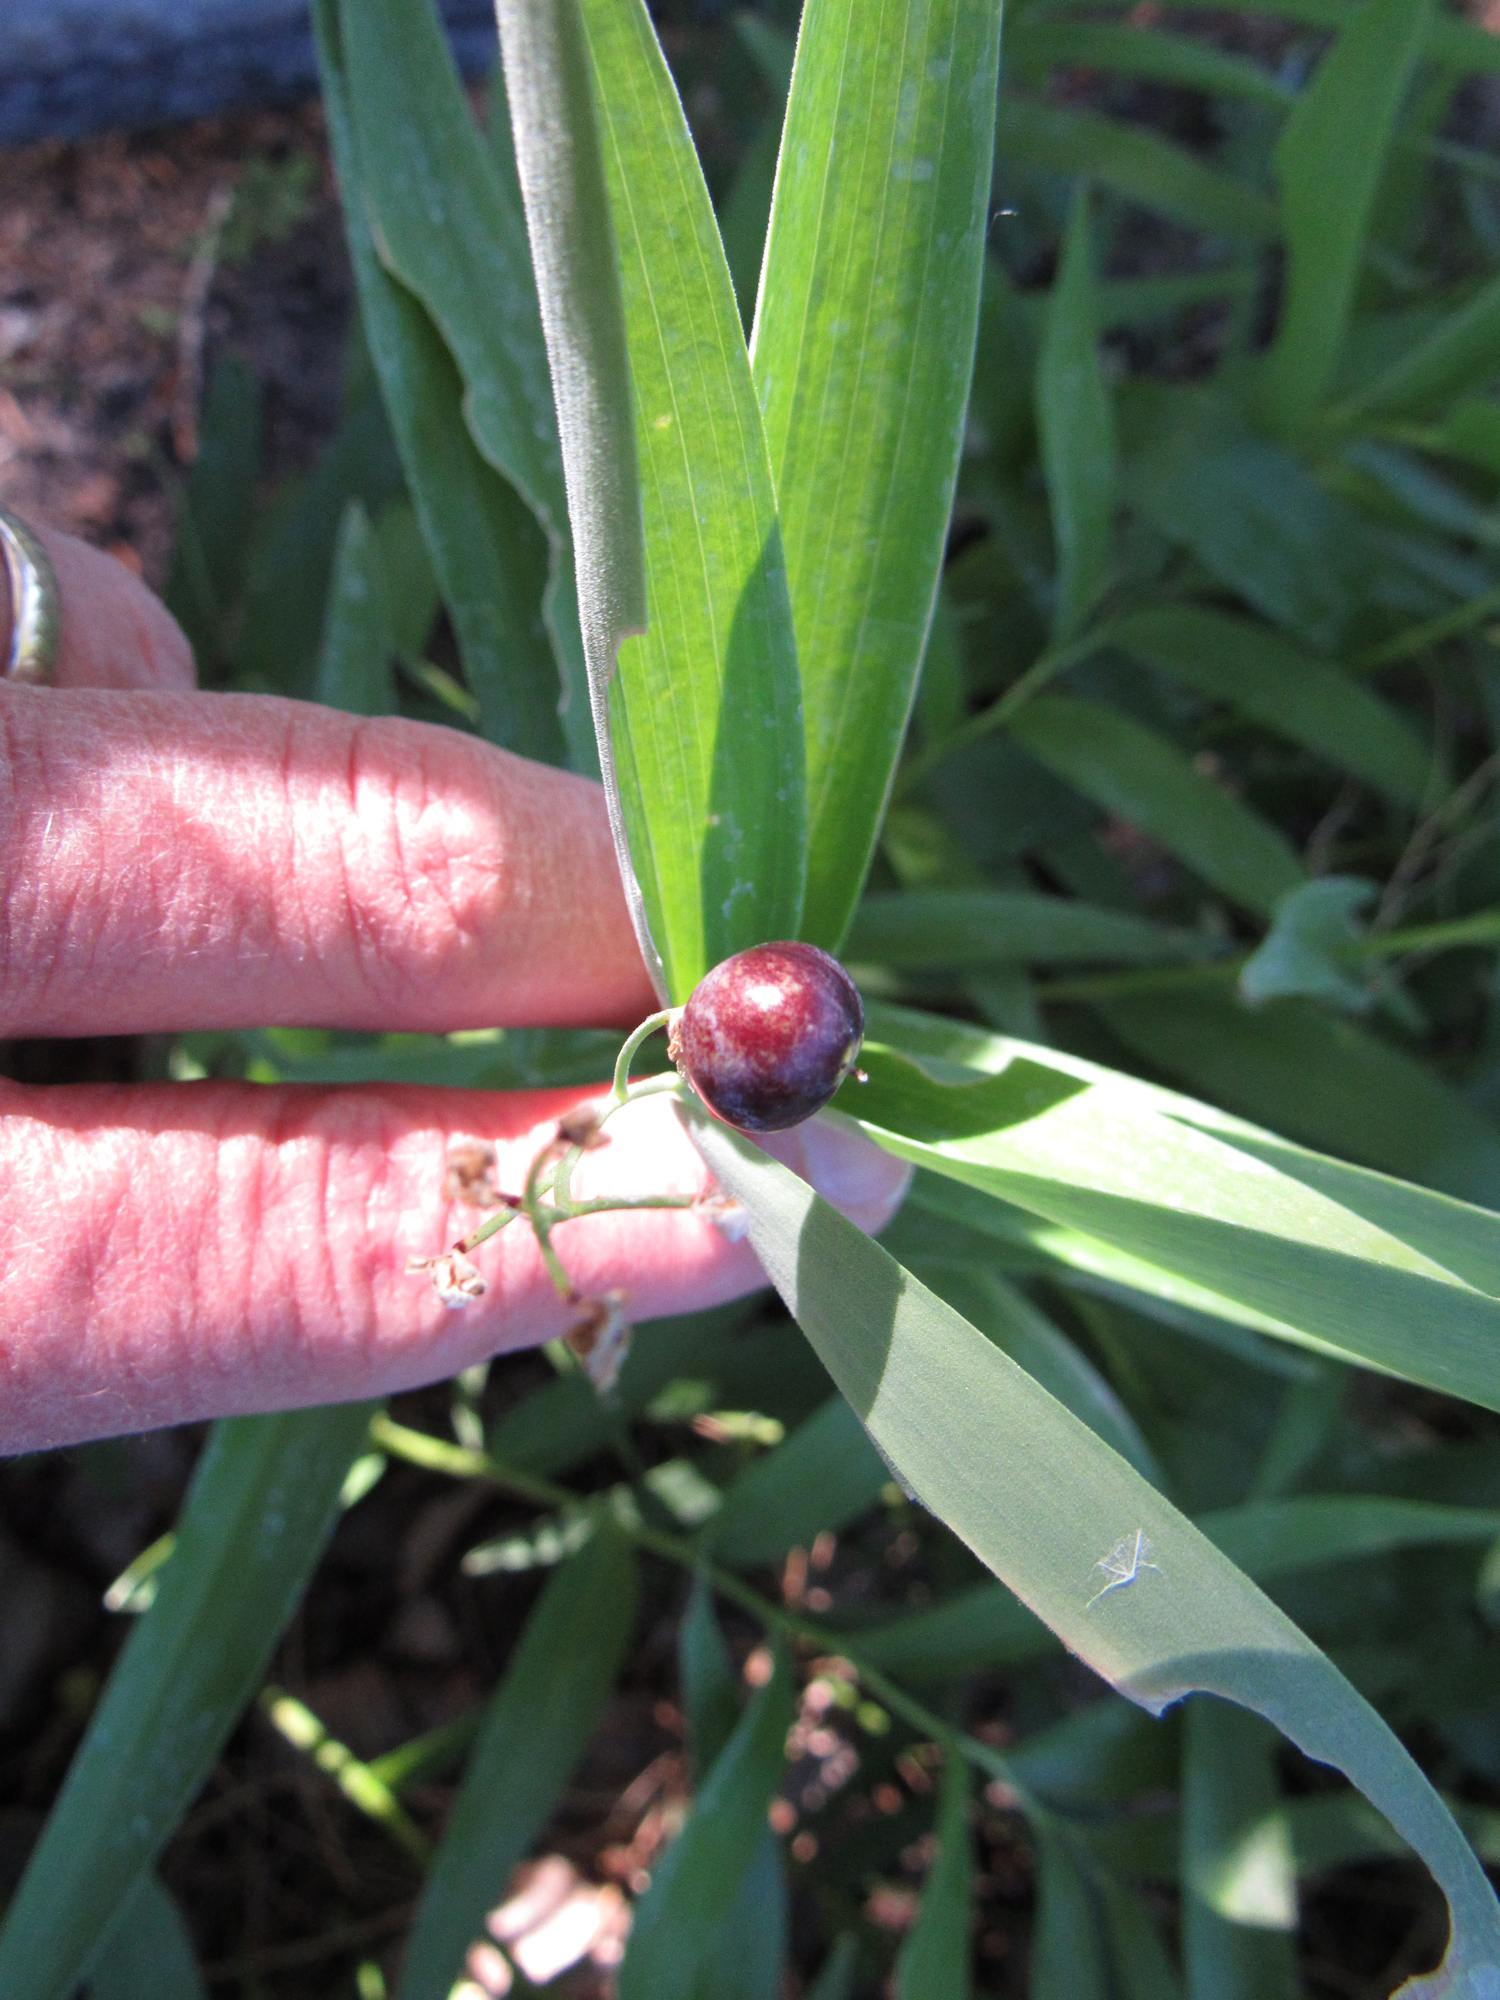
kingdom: Plantae
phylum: Tracheophyta
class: Liliopsida
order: Asparagales
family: Asparagaceae
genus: Maianthemum
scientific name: Maianthemum stellatum
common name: Little false solomon's seal
